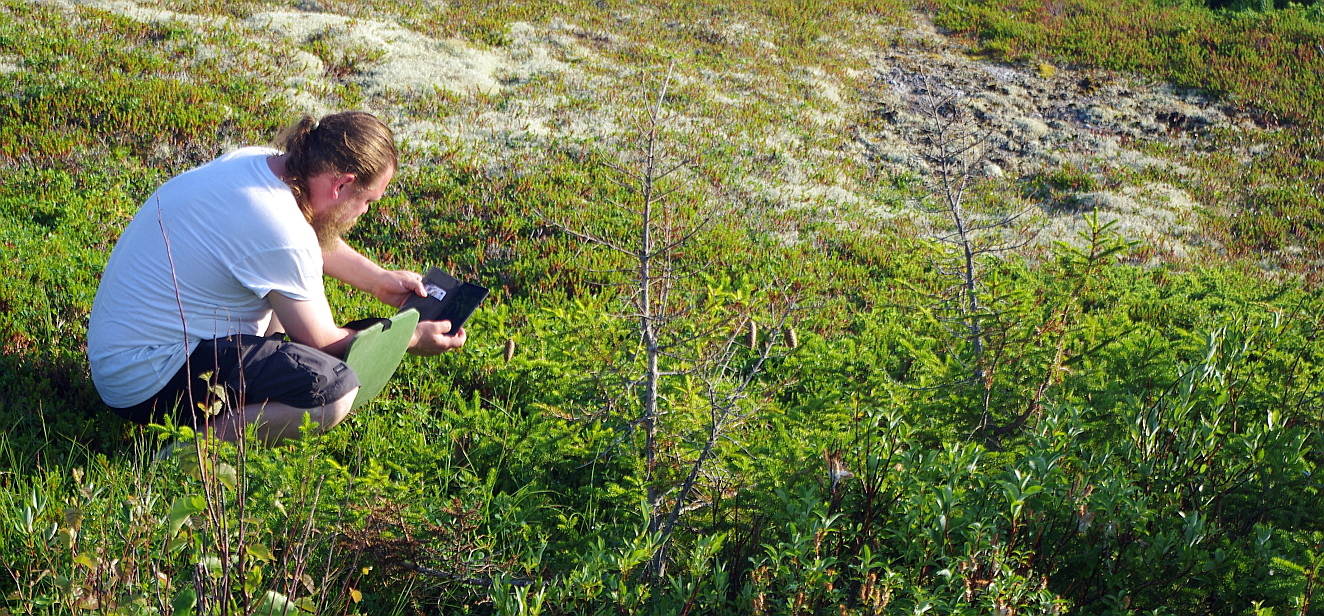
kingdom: Plantae
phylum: Tracheophyta
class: Pinopsida
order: Pinales
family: Pinaceae
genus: Picea
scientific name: Picea obovata
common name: Siberian spruce
